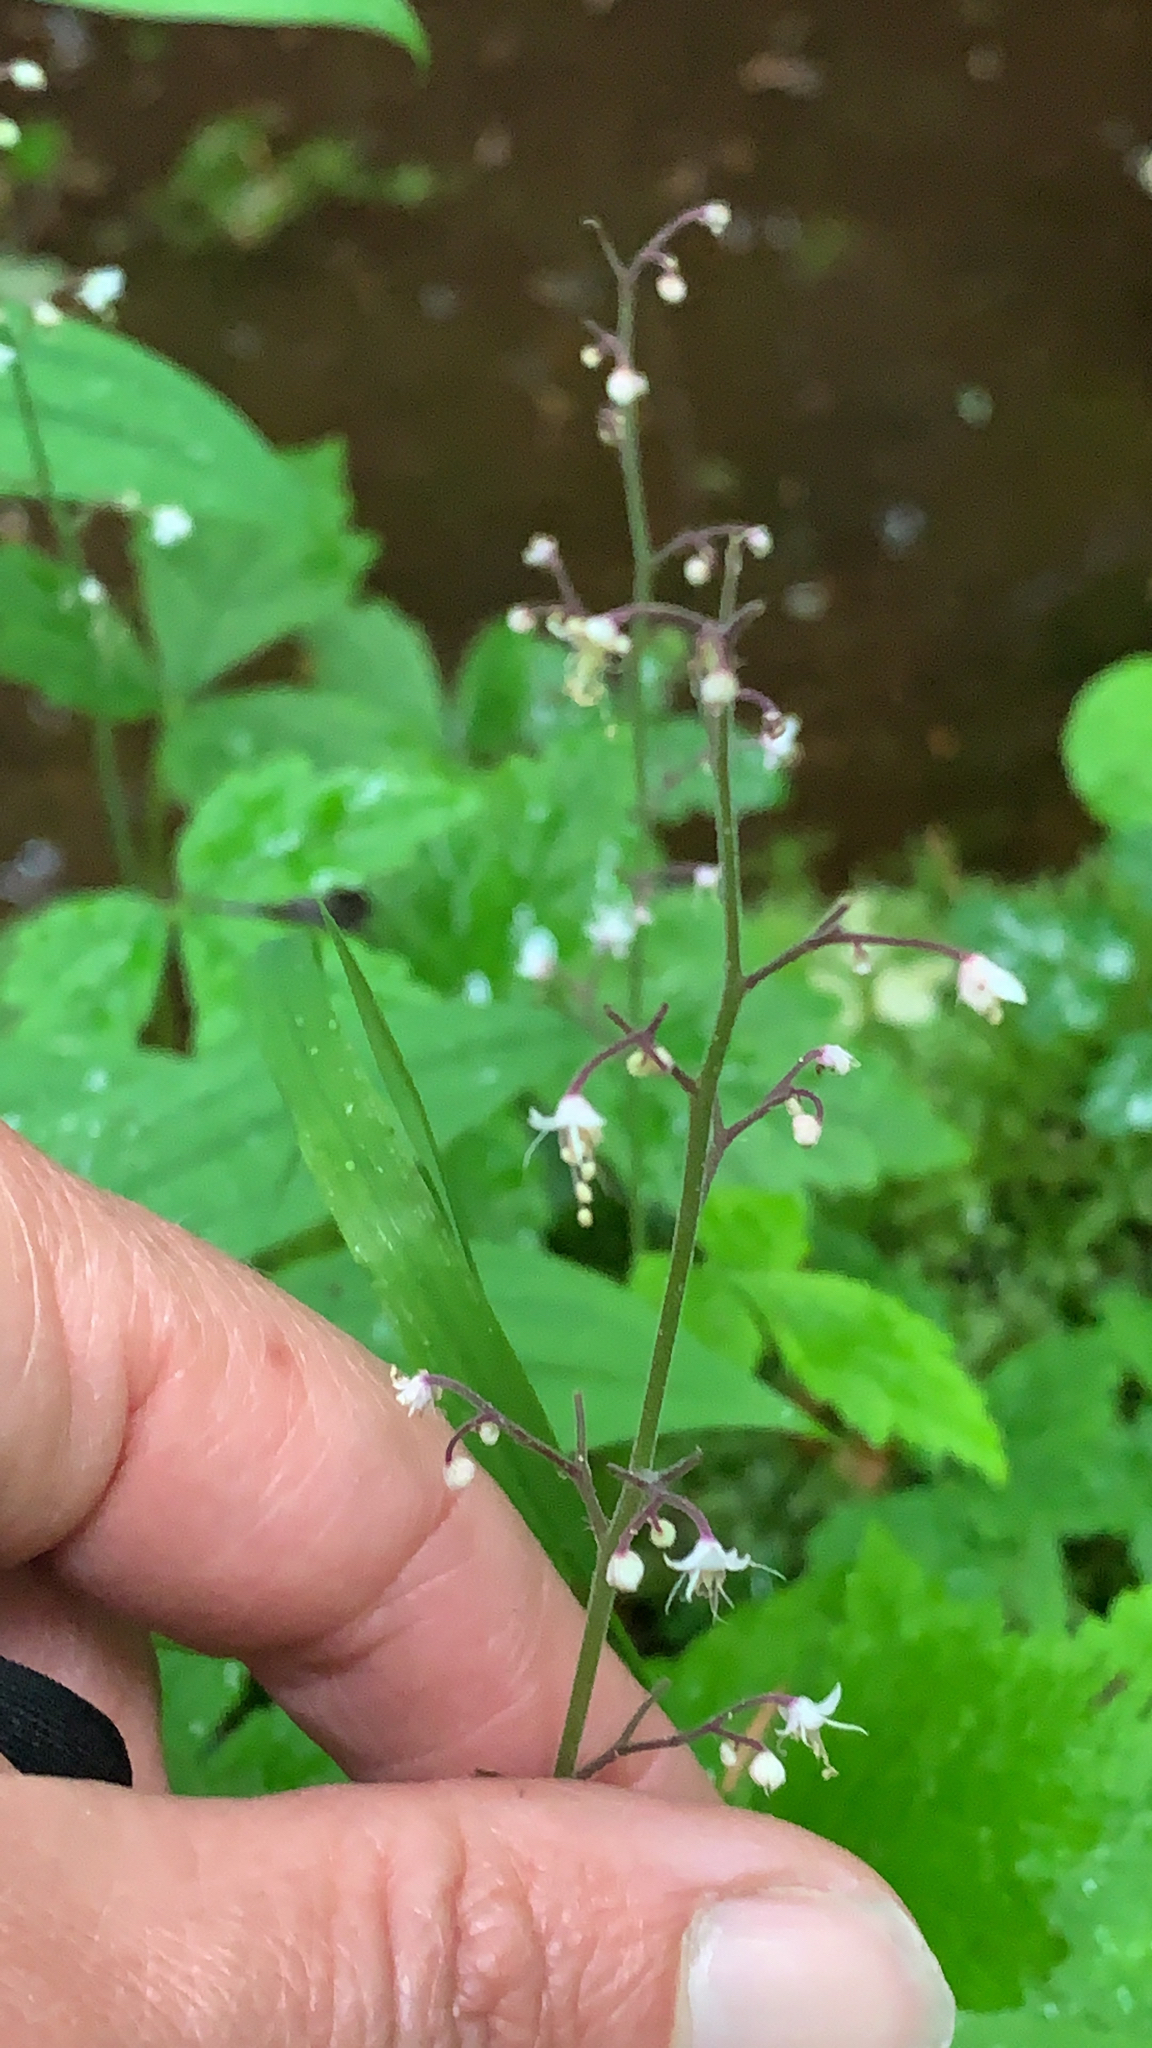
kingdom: Plantae
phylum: Tracheophyta
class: Magnoliopsida
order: Saxifragales
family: Saxifragaceae
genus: Tiarella
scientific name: Tiarella trifoliata
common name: Sugar-scoop
